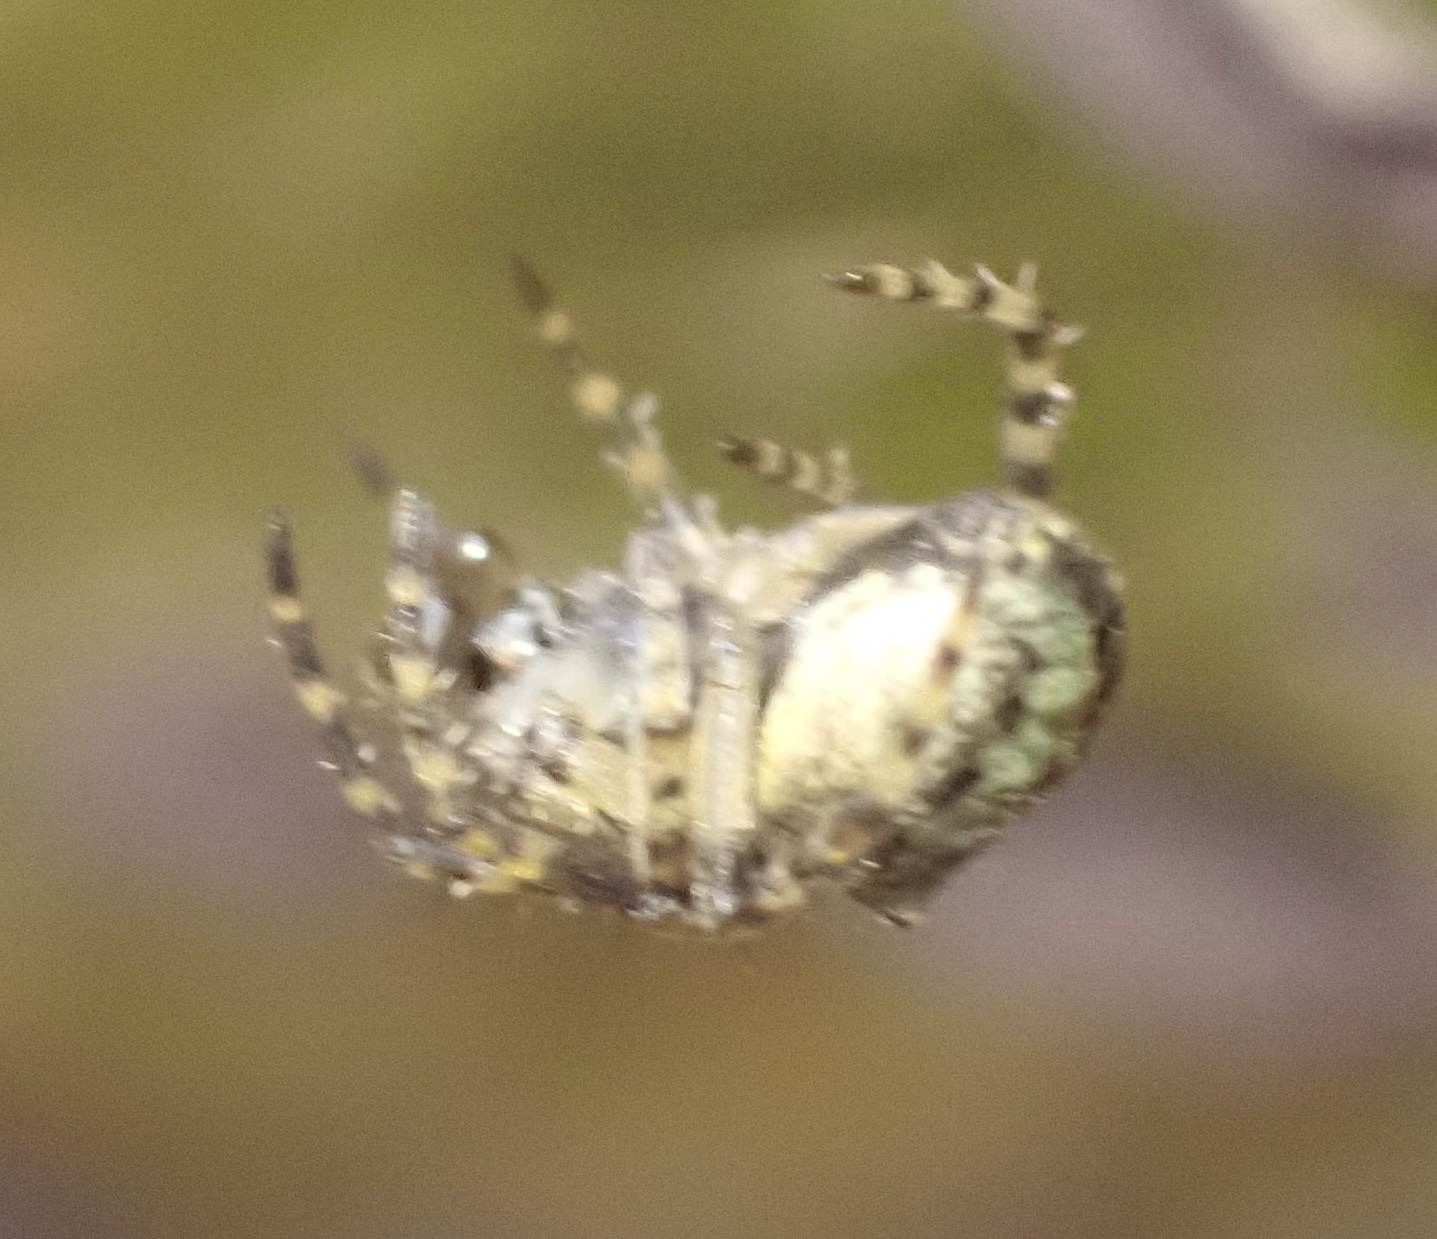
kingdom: Animalia
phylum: Arthropoda
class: Arachnida
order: Araneae
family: Araneidae
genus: Gibbaranea
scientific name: Gibbaranea gibbosa
